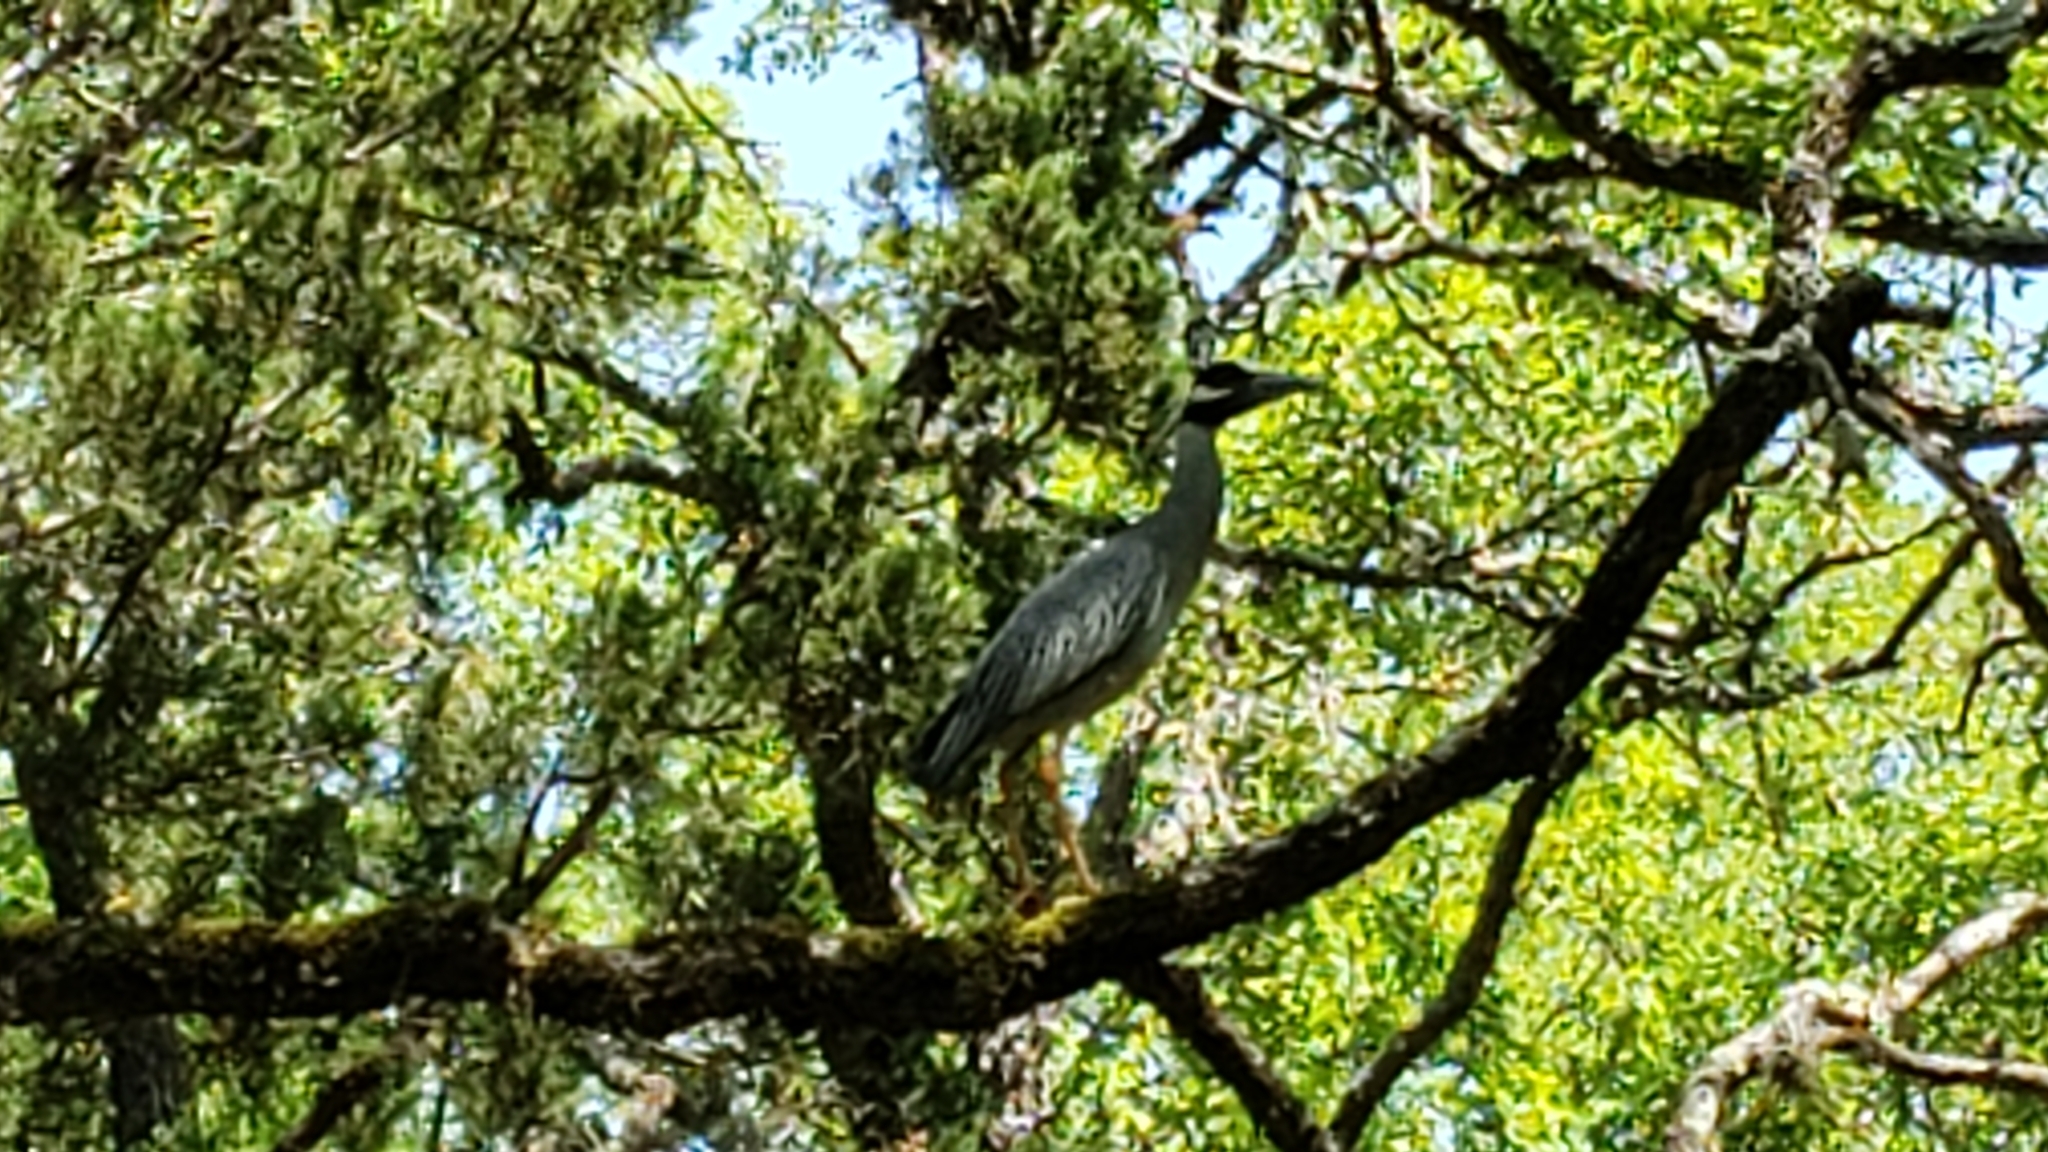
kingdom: Animalia
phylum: Chordata
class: Aves
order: Pelecaniformes
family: Ardeidae
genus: Nyctanassa
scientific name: Nyctanassa violacea
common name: Yellow-crowned night heron
